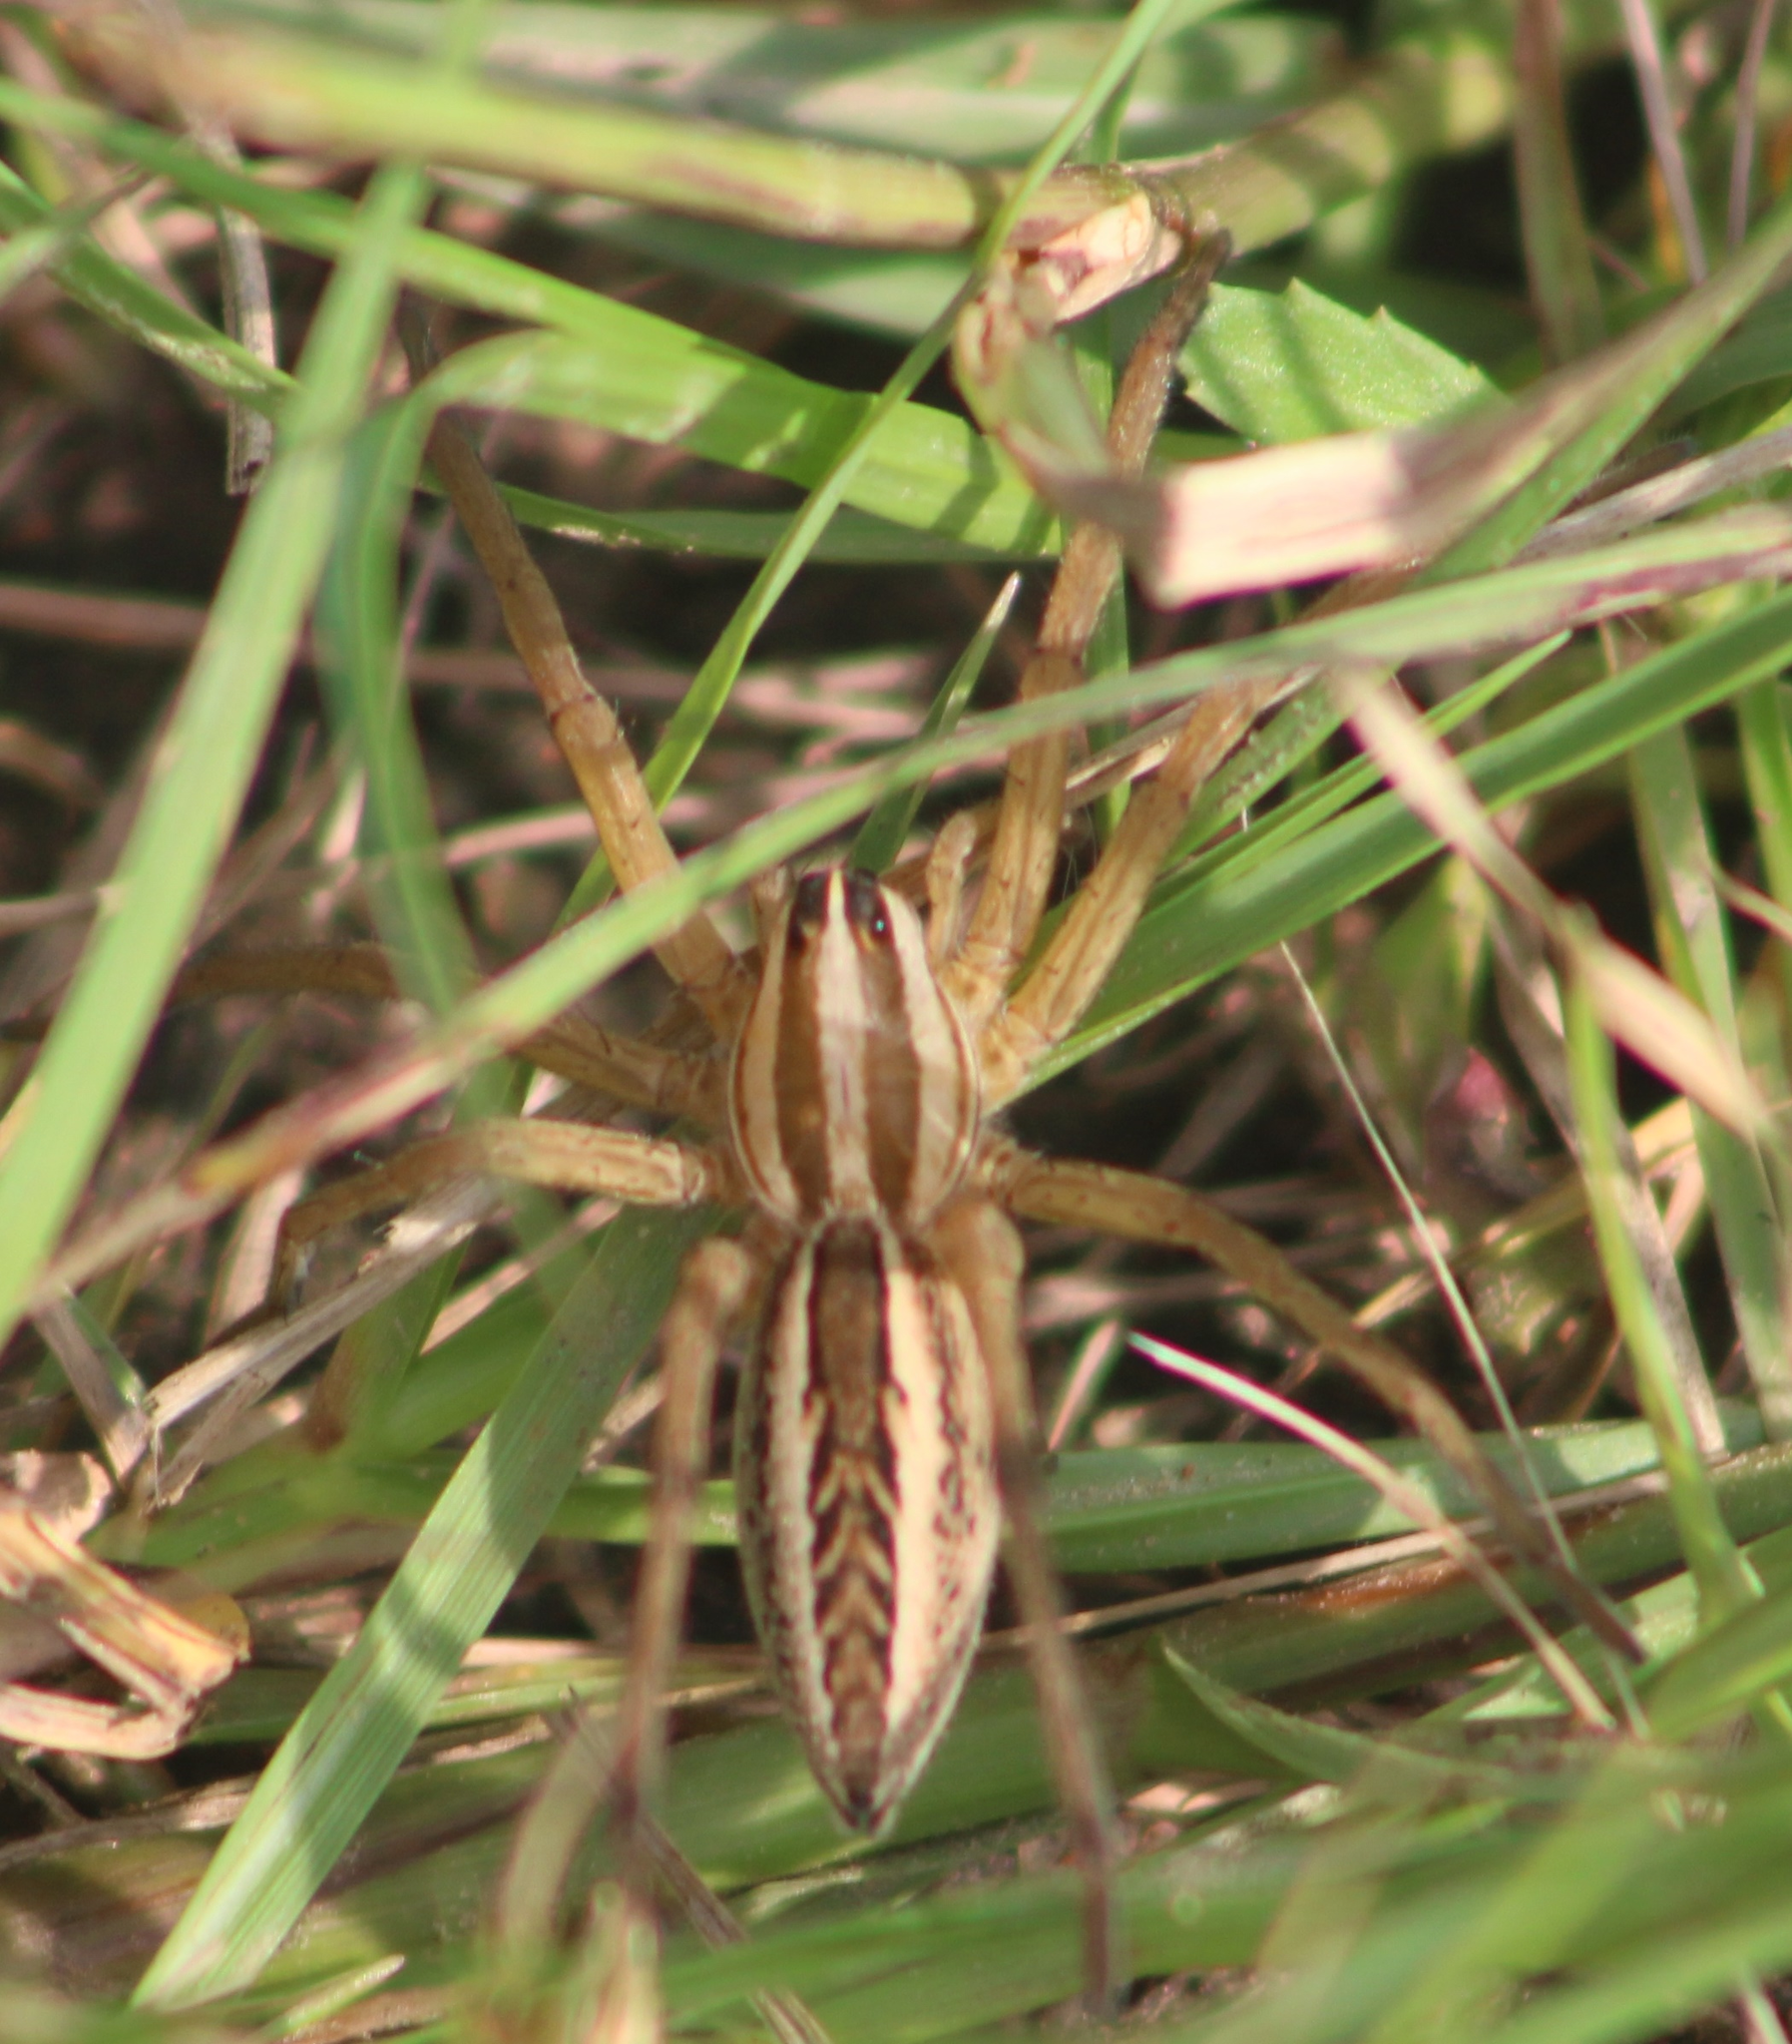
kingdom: Animalia
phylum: Arthropoda
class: Arachnida
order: Araneae
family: Lycosidae
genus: Rabidosa
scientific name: Rabidosa rabida
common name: Rabid wolf spider
